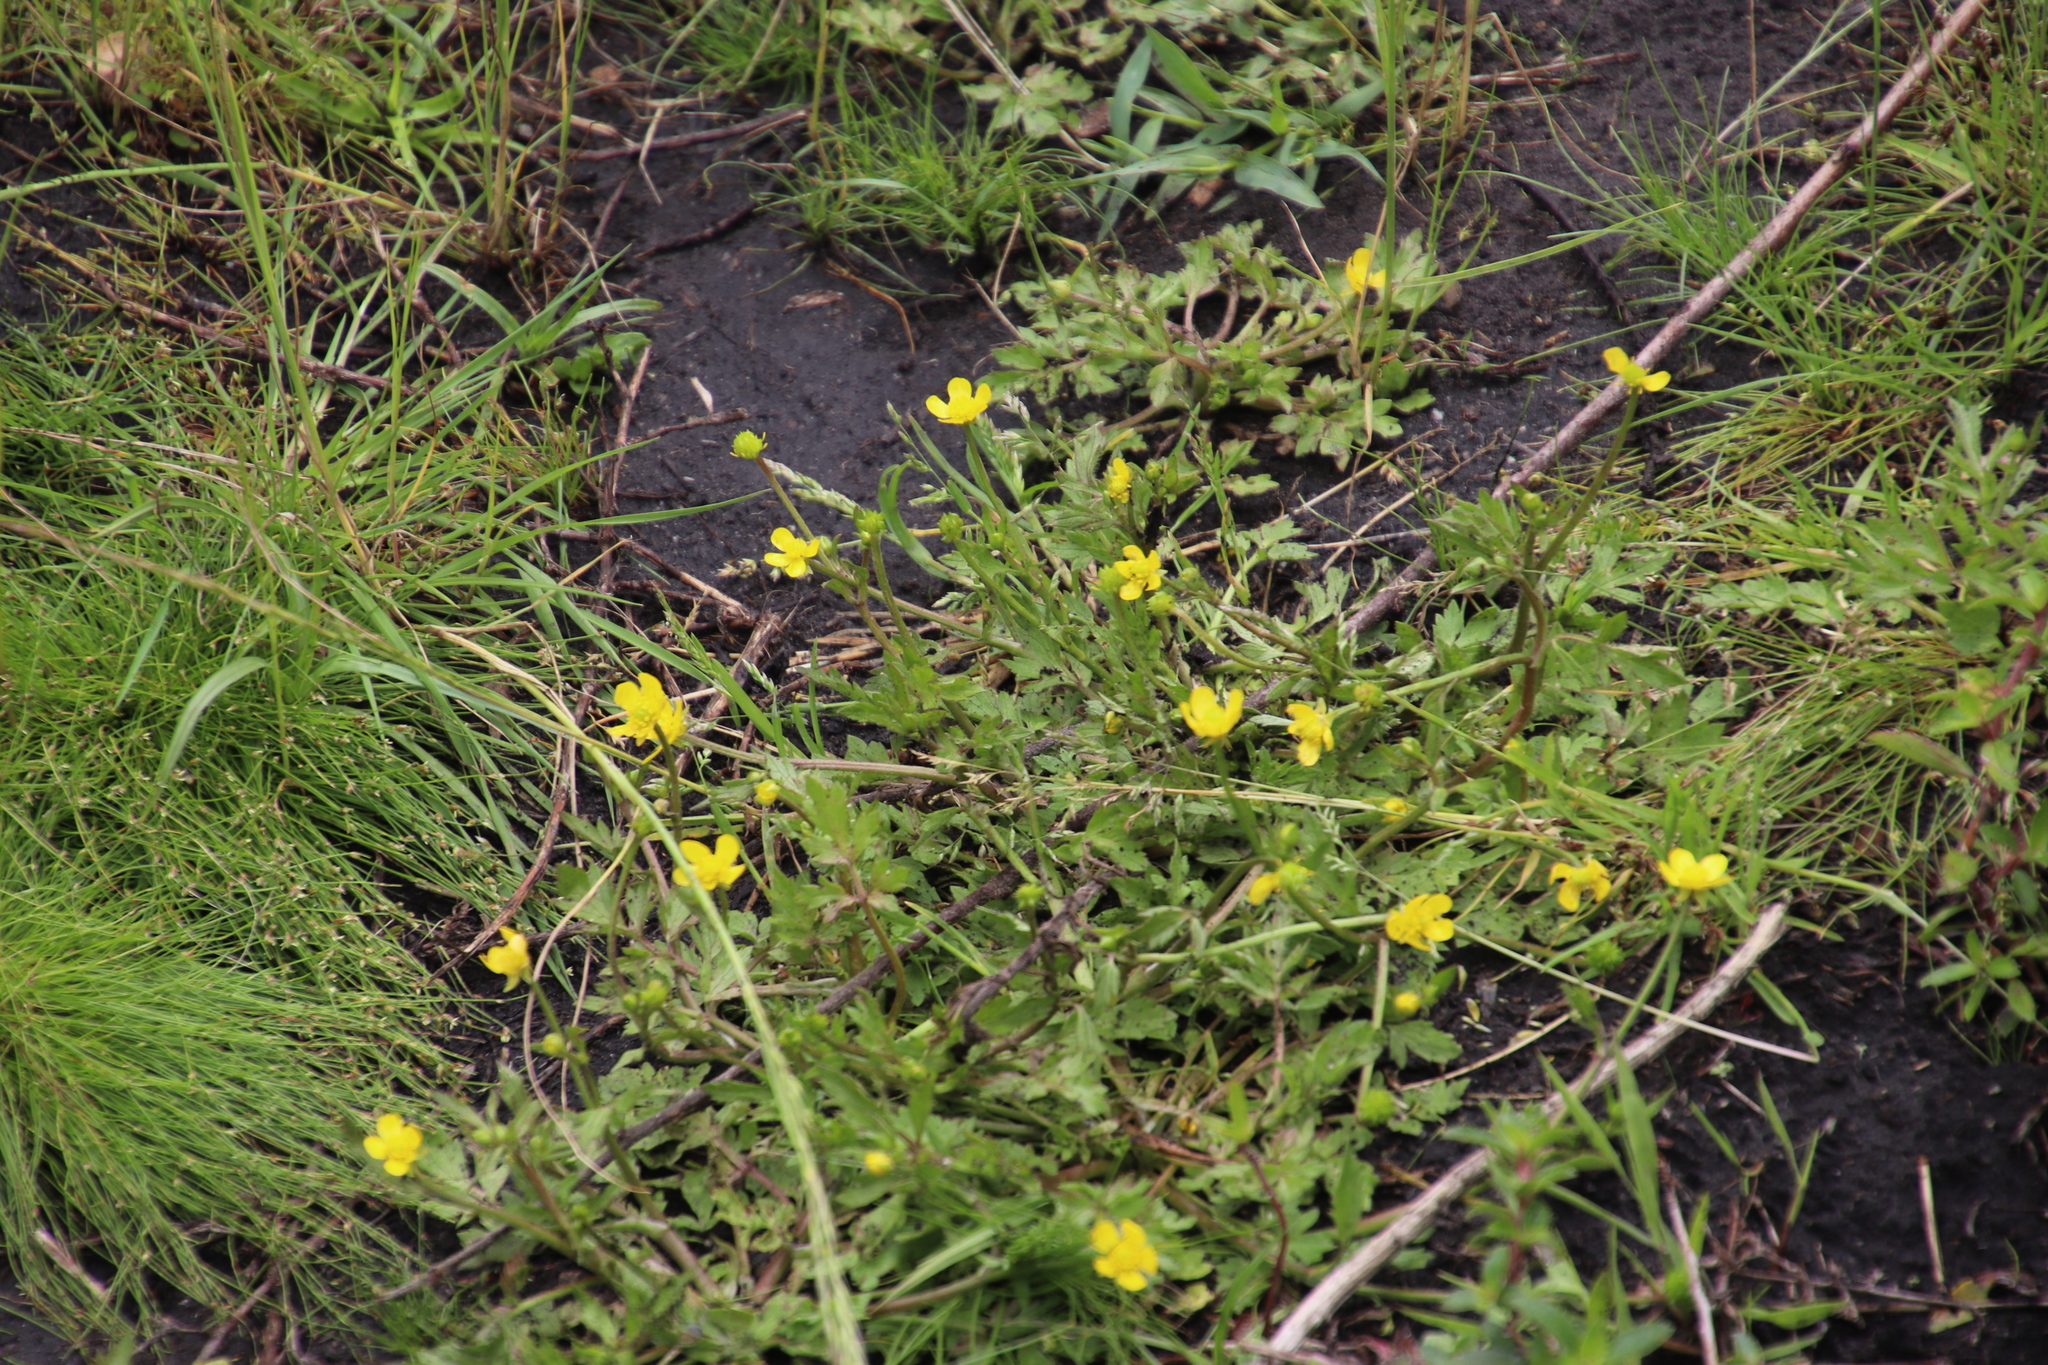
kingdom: Plantae
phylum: Tracheophyta
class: Magnoliopsida
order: Ranunculales
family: Ranunculaceae
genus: Ranunculus
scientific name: Ranunculus multifidus
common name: Wild buttercup
